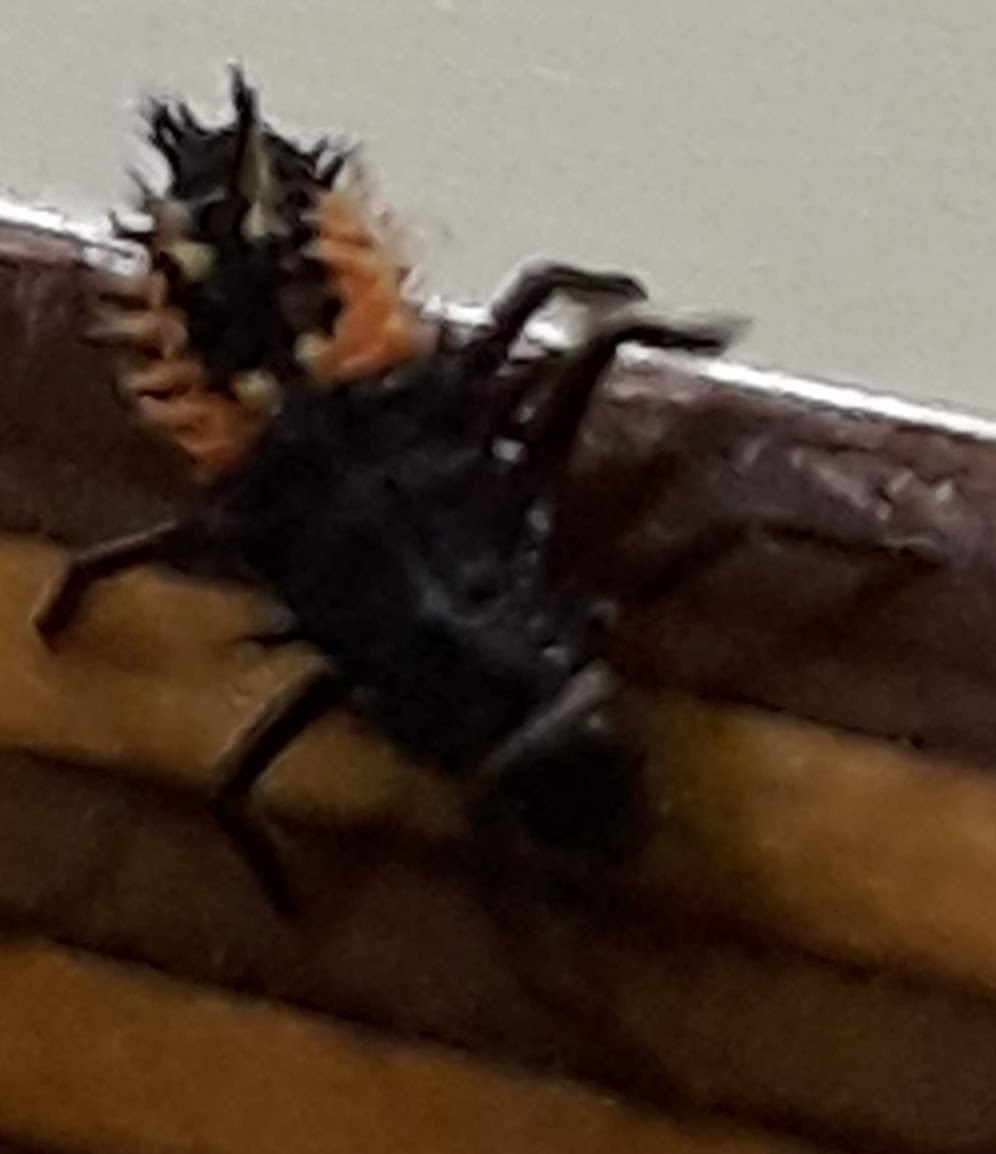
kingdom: Animalia
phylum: Arthropoda
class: Insecta
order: Coleoptera
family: Coccinellidae
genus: Harmonia
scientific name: Harmonia axyridis
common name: Harlequin ladybird
